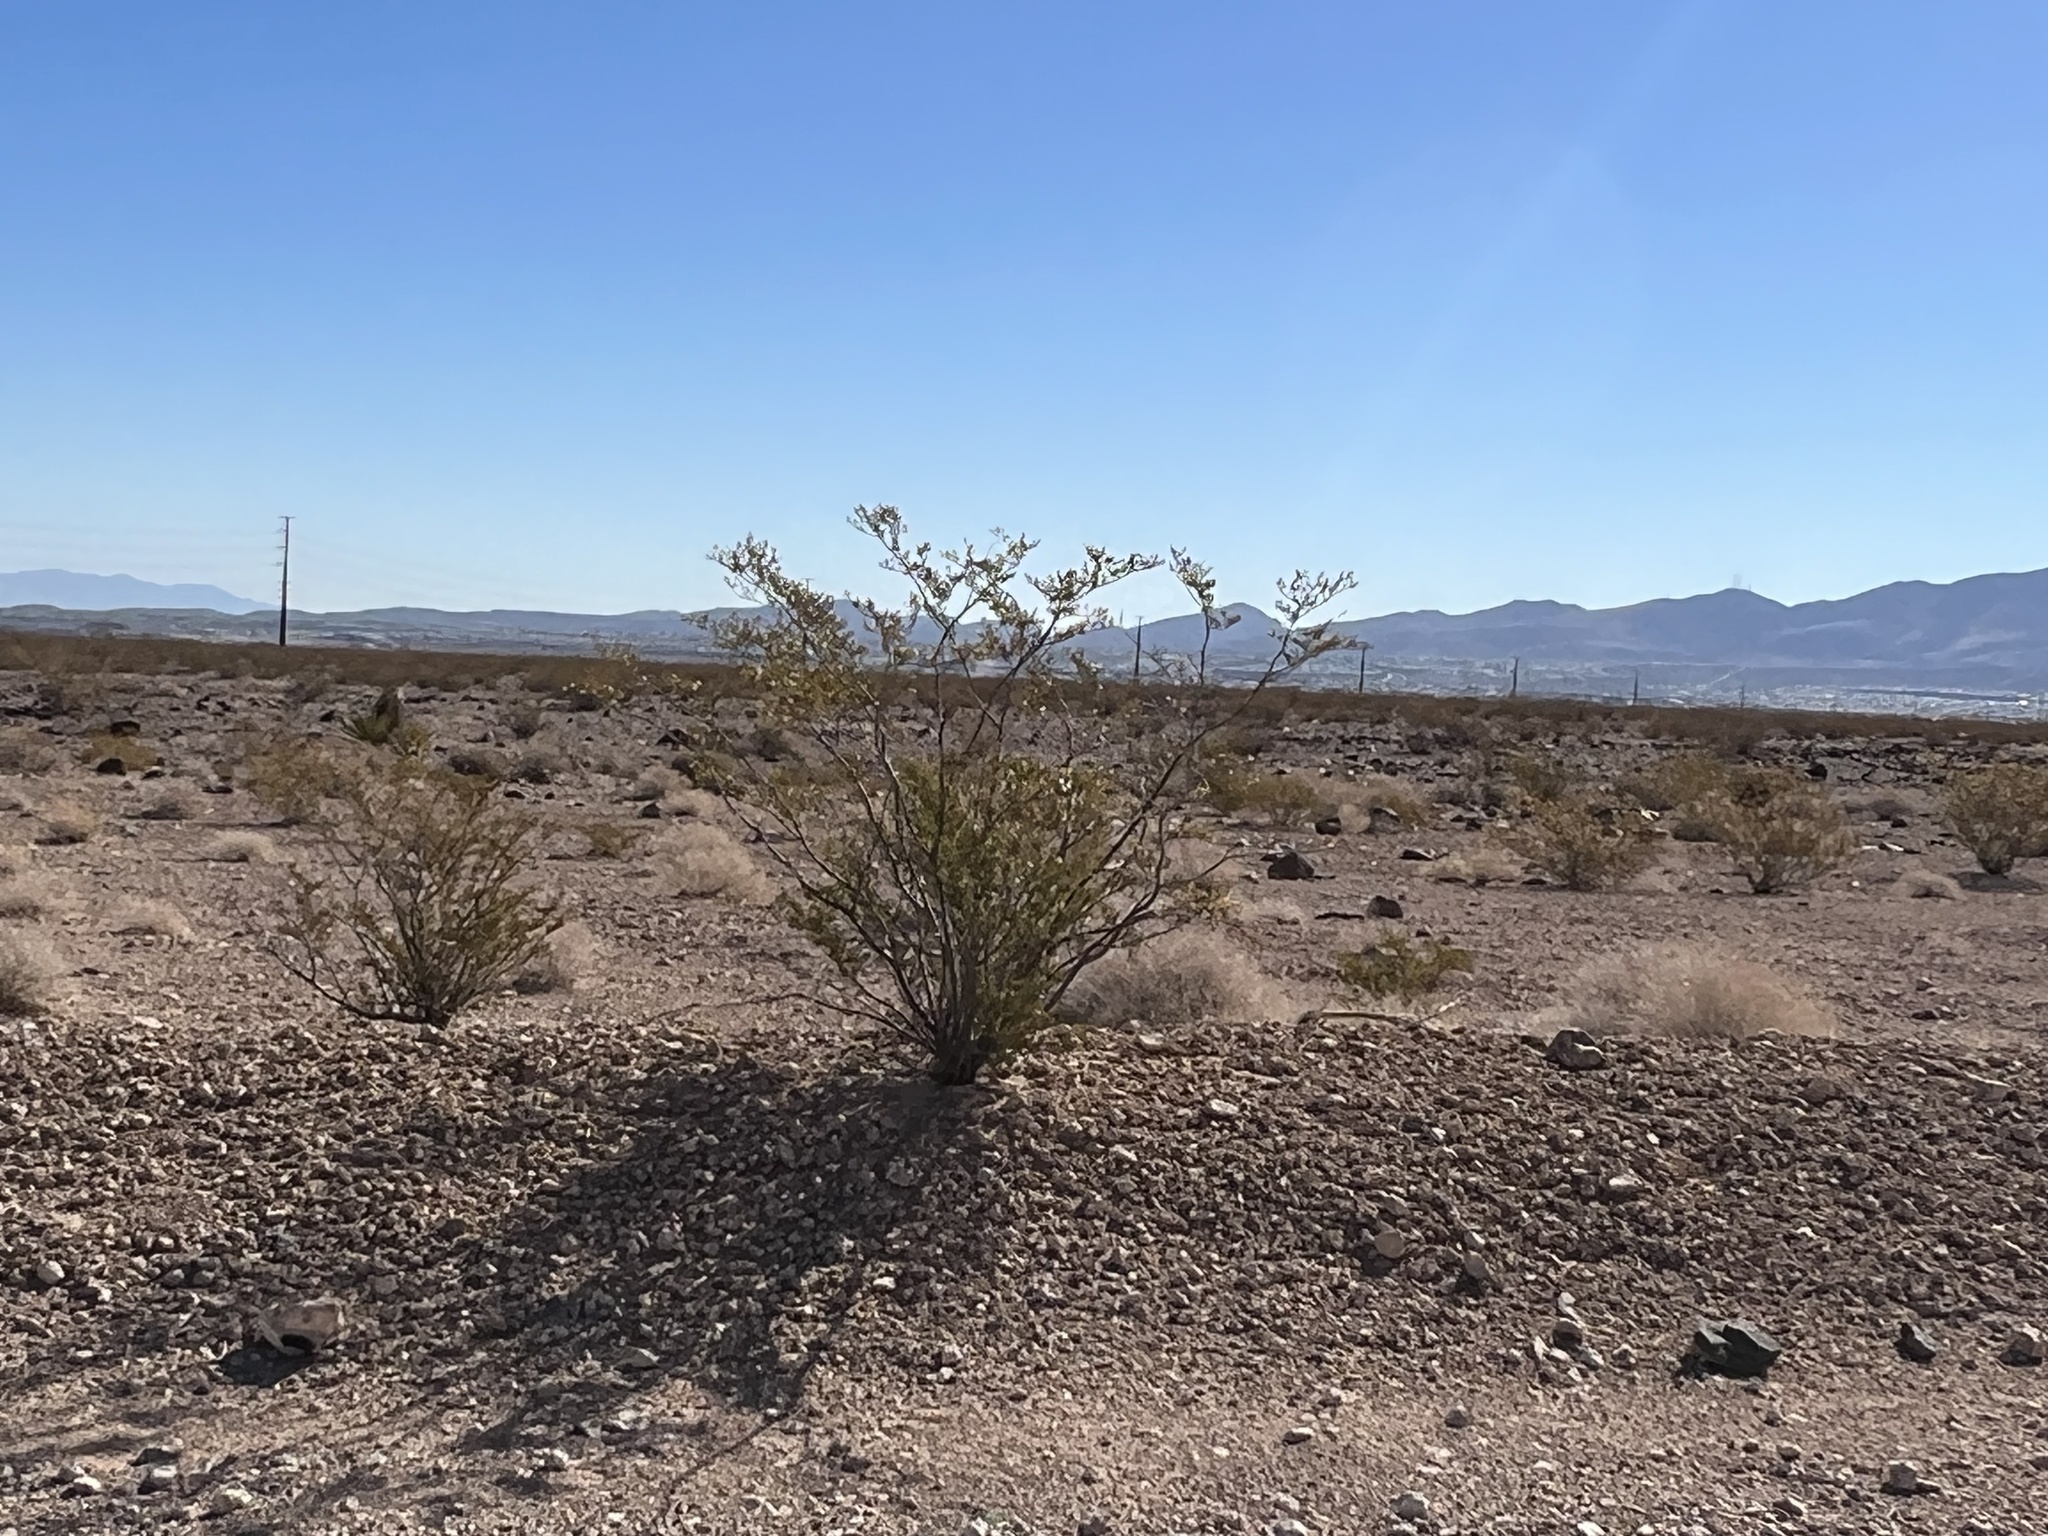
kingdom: Plantae
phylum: Tracheophyta
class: Magnoliopsida
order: Zygophyllales
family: Zygophyllaceae
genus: Larrea
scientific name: Larrea tridentata
